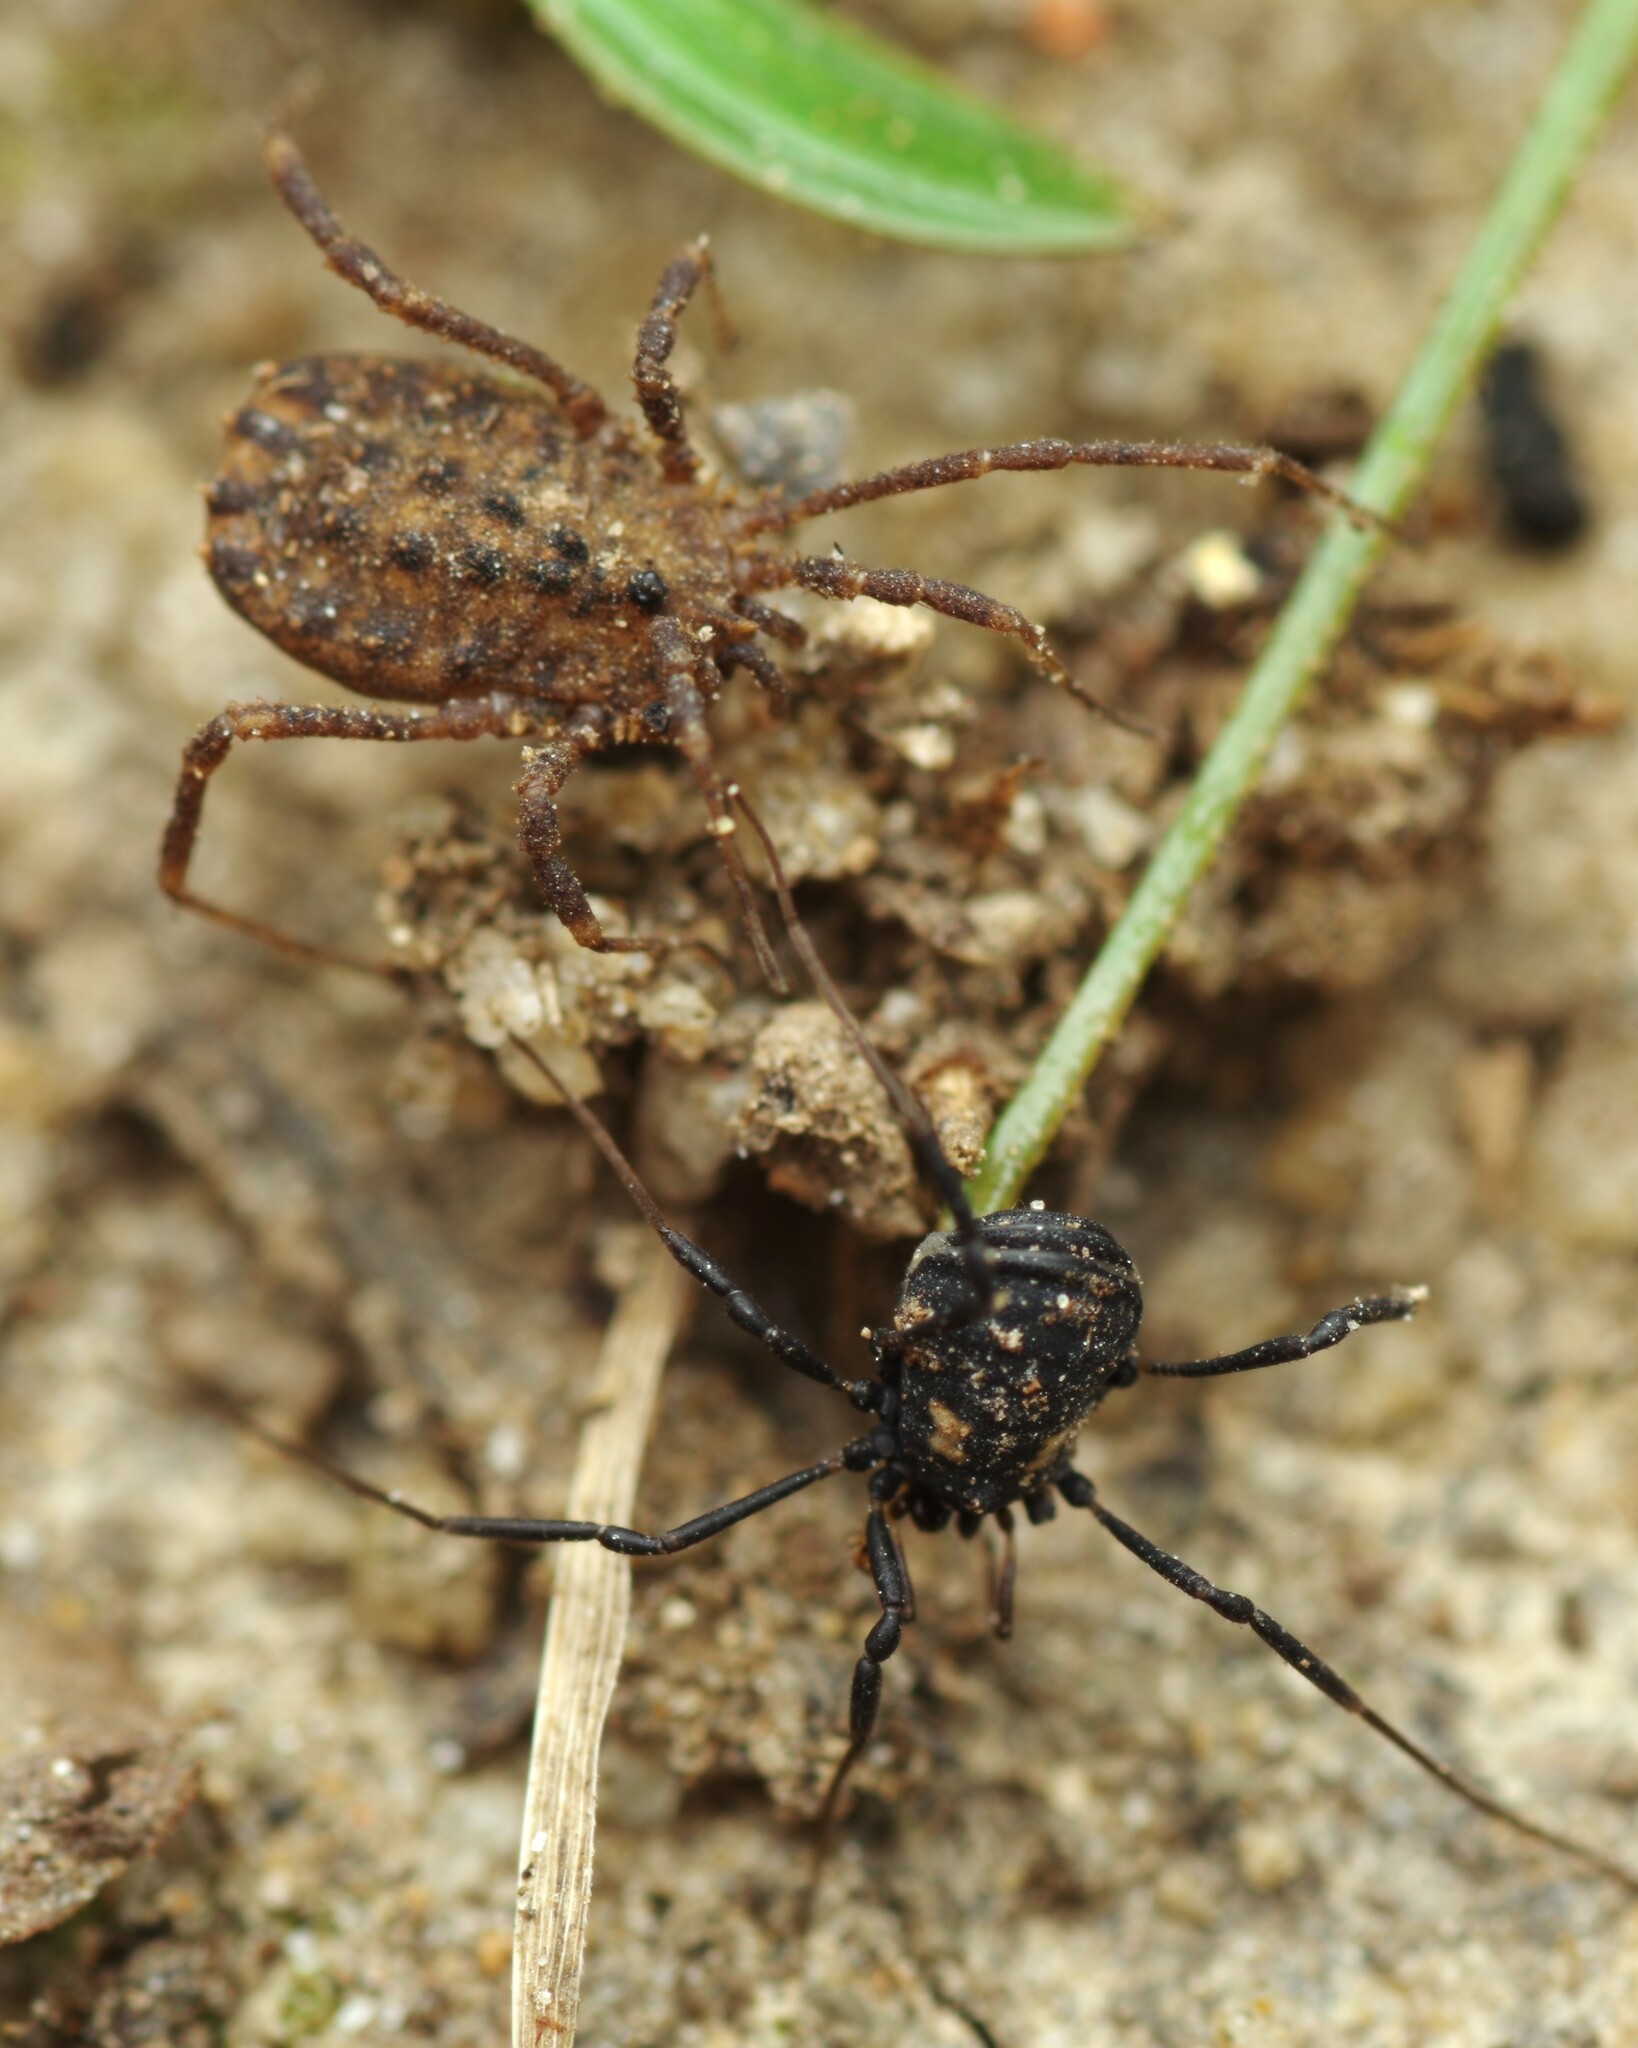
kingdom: Animalia
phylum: Arthropoda
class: Arachnida
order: Opiliones
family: Nemastomatidae
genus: Nemastoma
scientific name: Nemastoma bimaculatum
